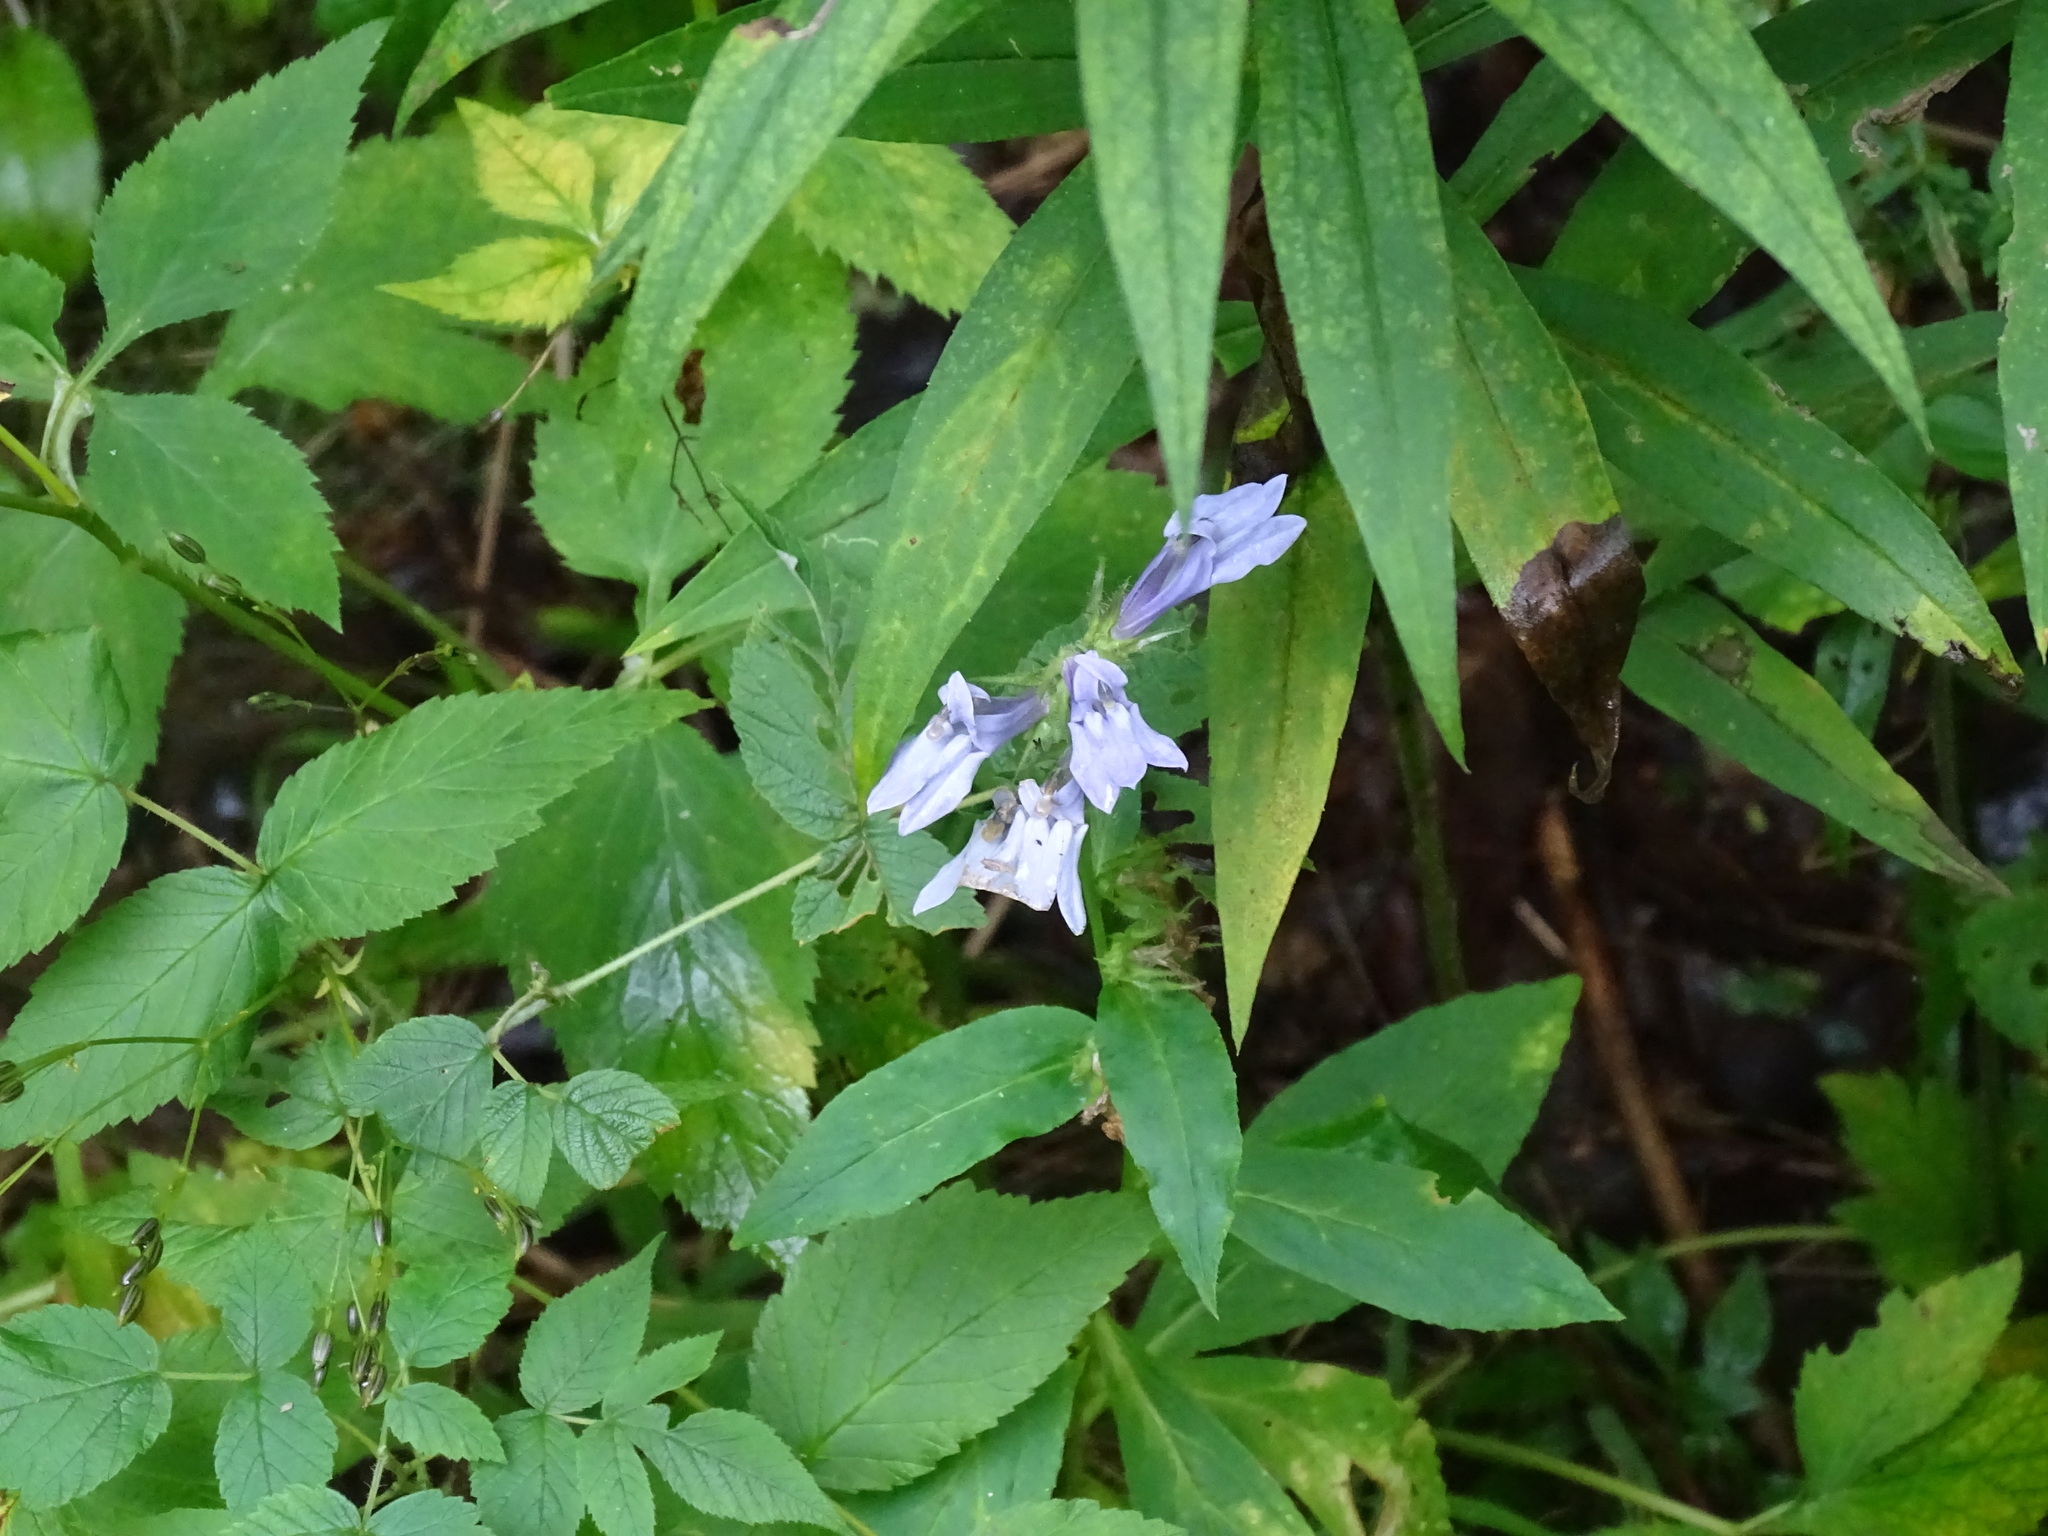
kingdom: Plantae
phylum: Tracheophyta
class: Magnoliopsida
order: Asterales
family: Campanulaceae
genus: Lobelia
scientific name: Lobelia siphilitica
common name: Great lobelia
